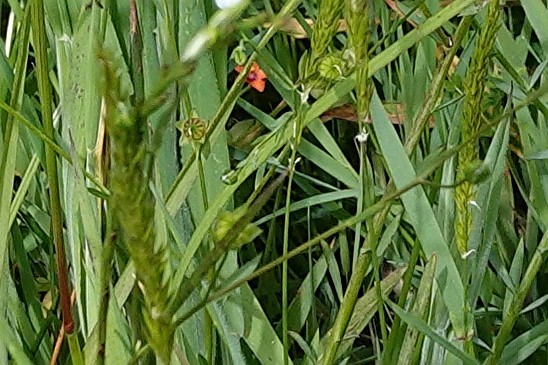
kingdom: Plantae
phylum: Tracheophyta
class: Magnoliopsida
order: Ericales
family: Primulaceae
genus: Lysimachia
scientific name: Lysimachia arvensis
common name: Scarlet pimpernel
